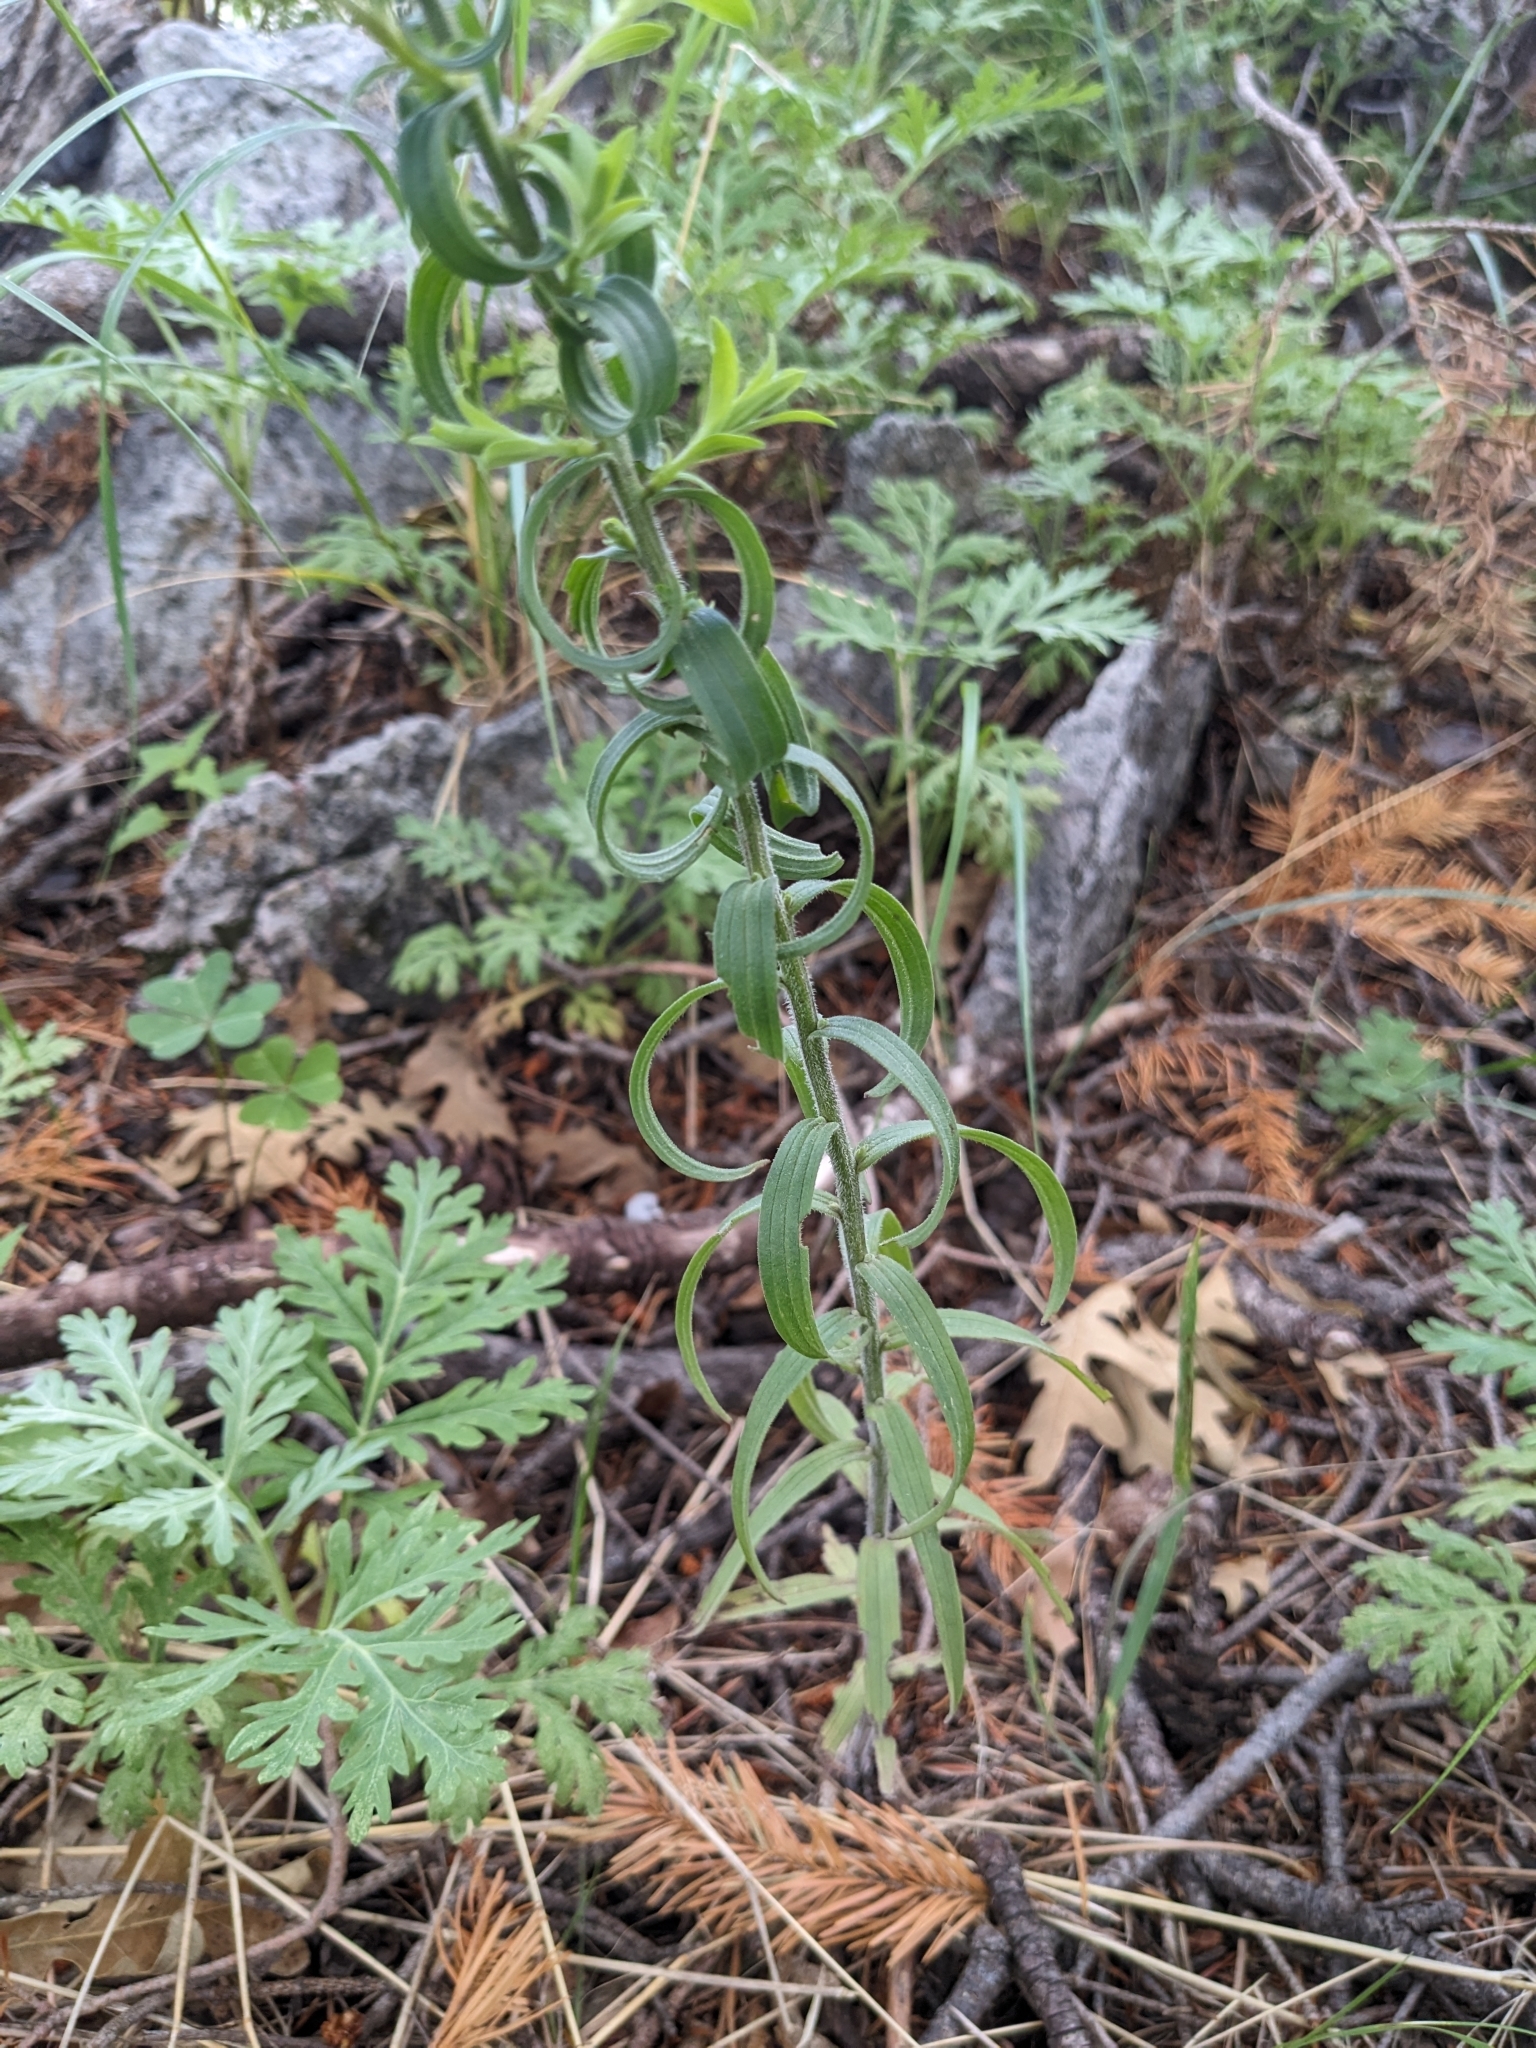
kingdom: Plantae
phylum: Tracheophyta
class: Magnoliopsida
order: Lamiales
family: Orobanchaceae
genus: Castilleja
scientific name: Castilleja nelsonii
